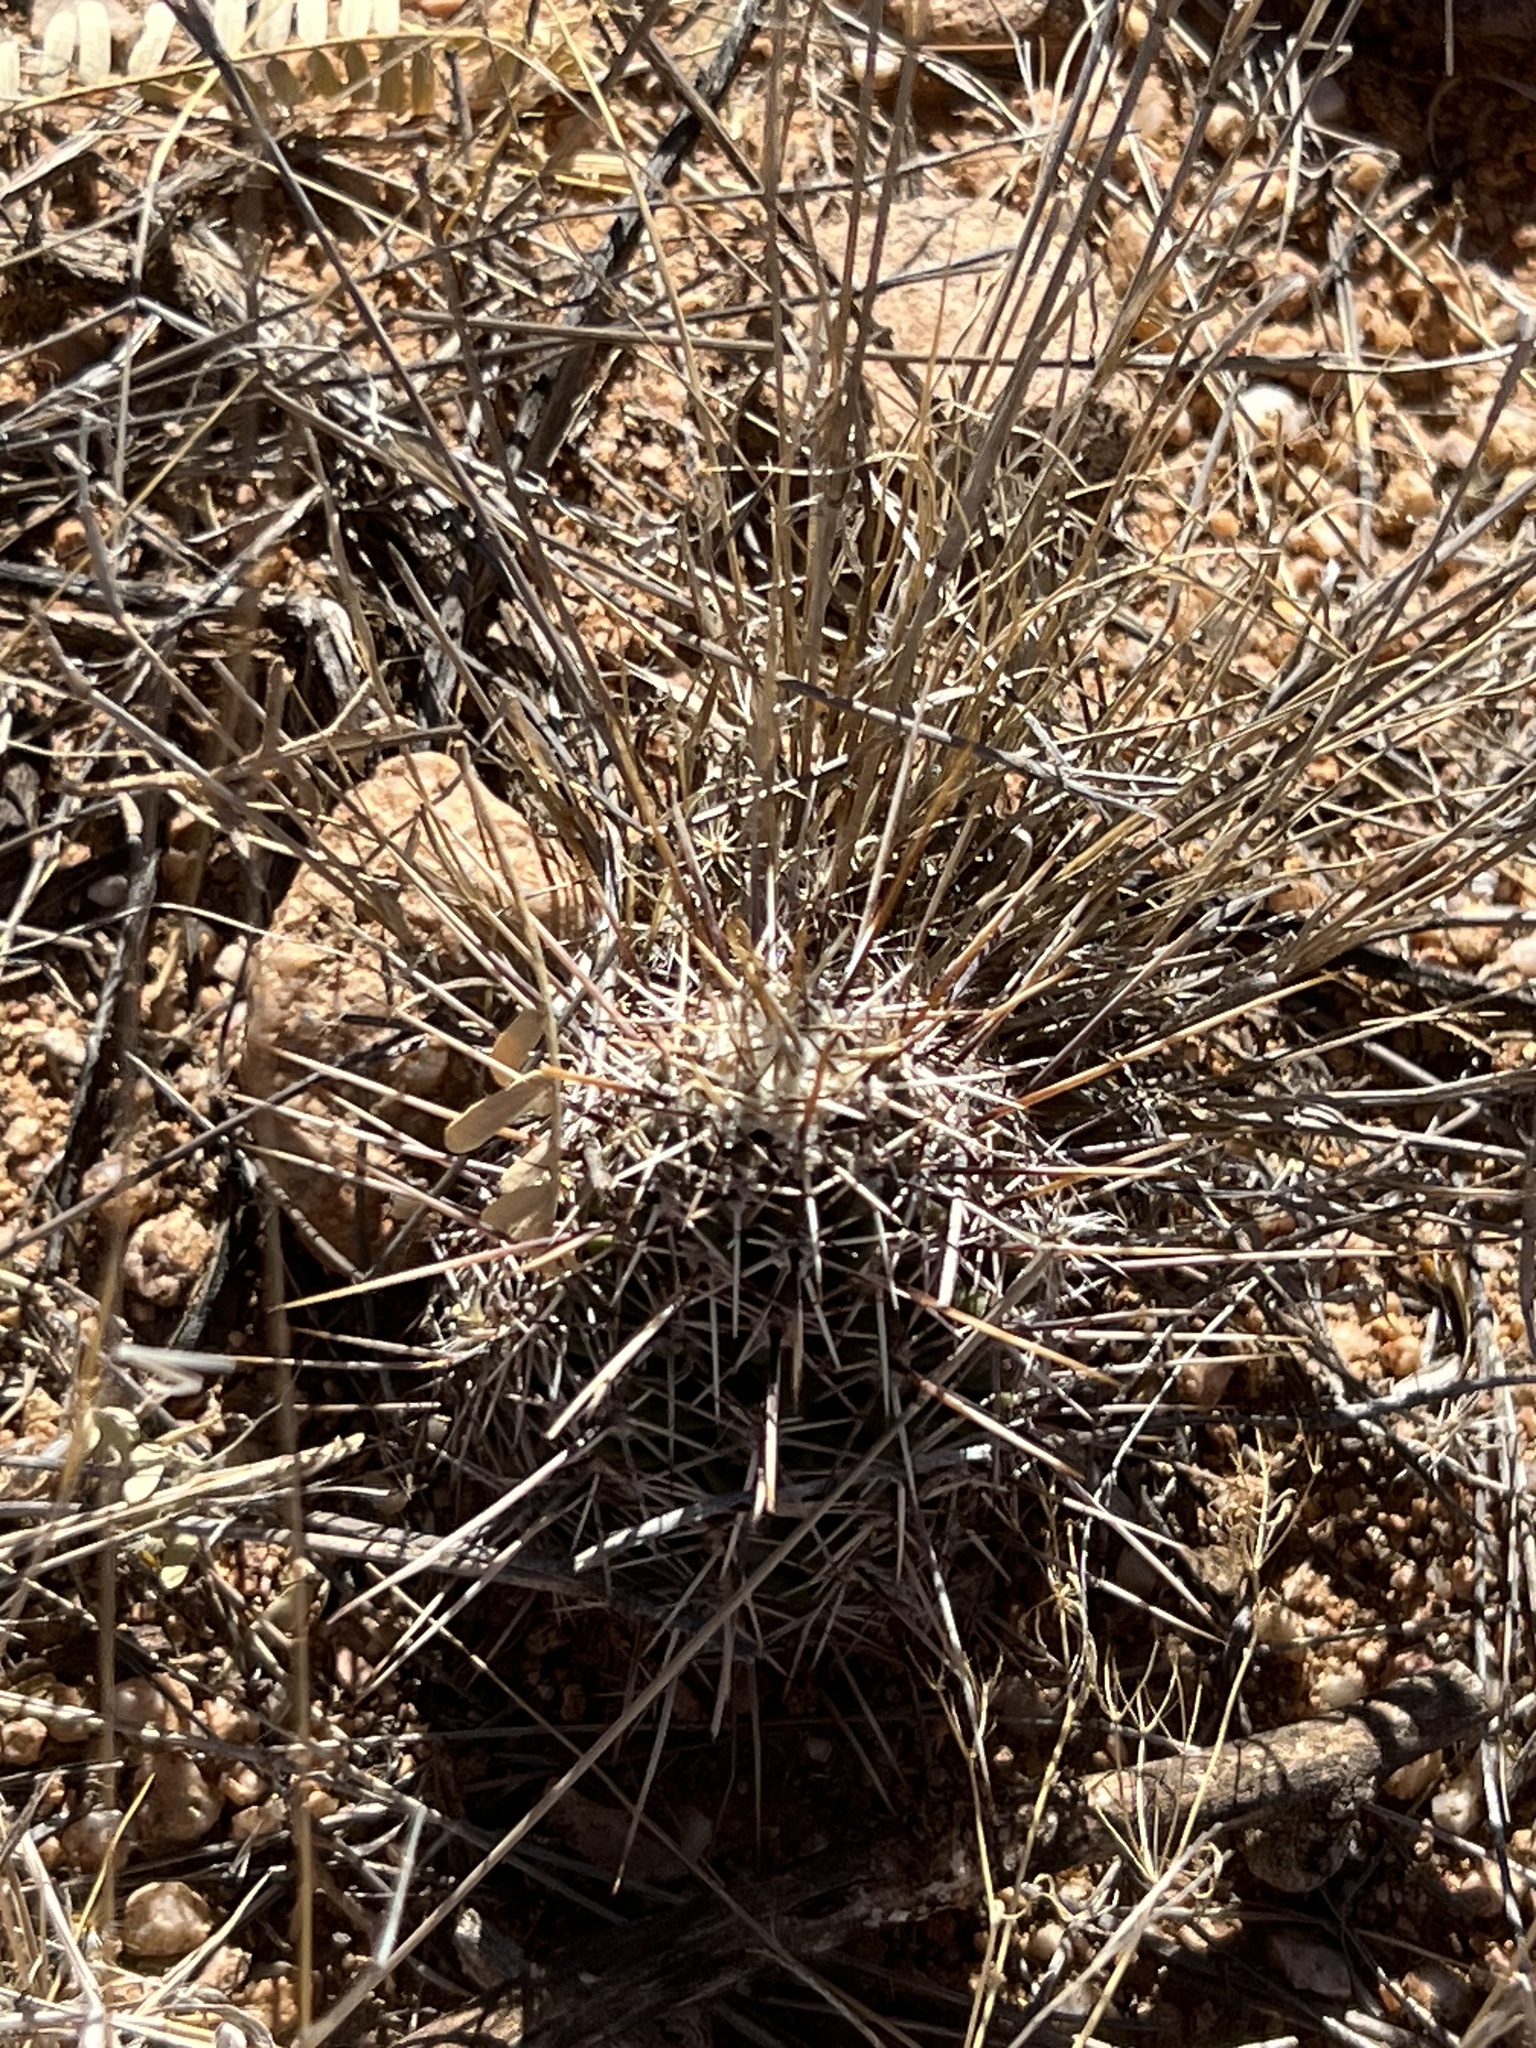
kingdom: Plantae
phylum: Tracheophyta
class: Magnoliopsida
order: Caryophyllales
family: Cactaceae
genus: Echinocereus
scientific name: Echinocereus fasciculatus
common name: Bundle hedgehog
